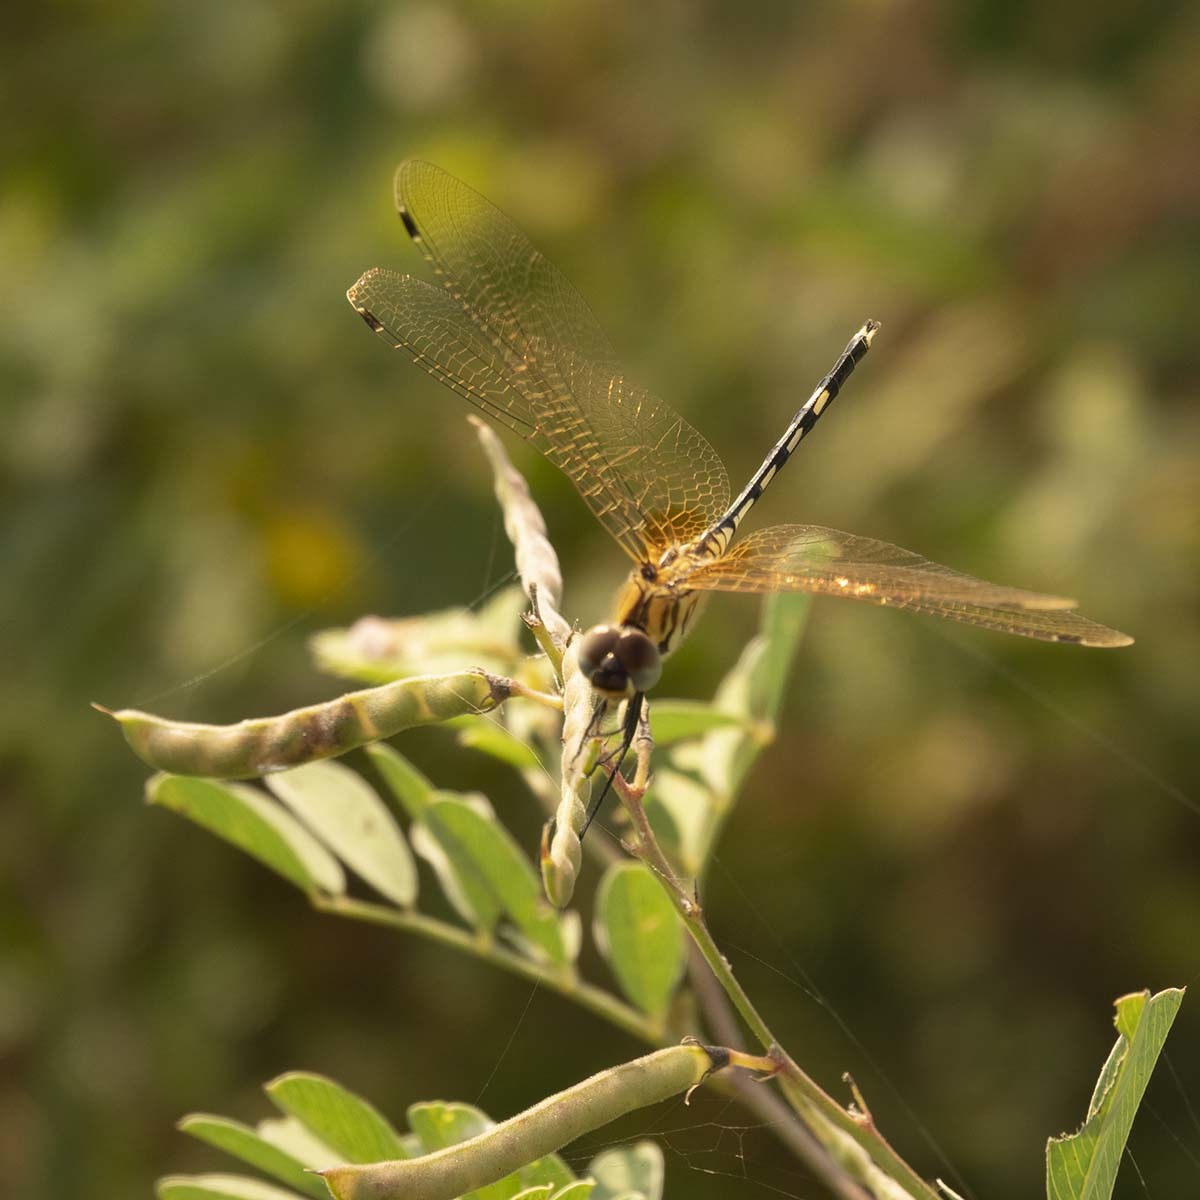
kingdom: Animalia
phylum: Arthropoda
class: Insecta
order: Odonata
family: Libellulidae
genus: Trithemis
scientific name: Trithemis pallidinervis
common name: Dancing dropwing
